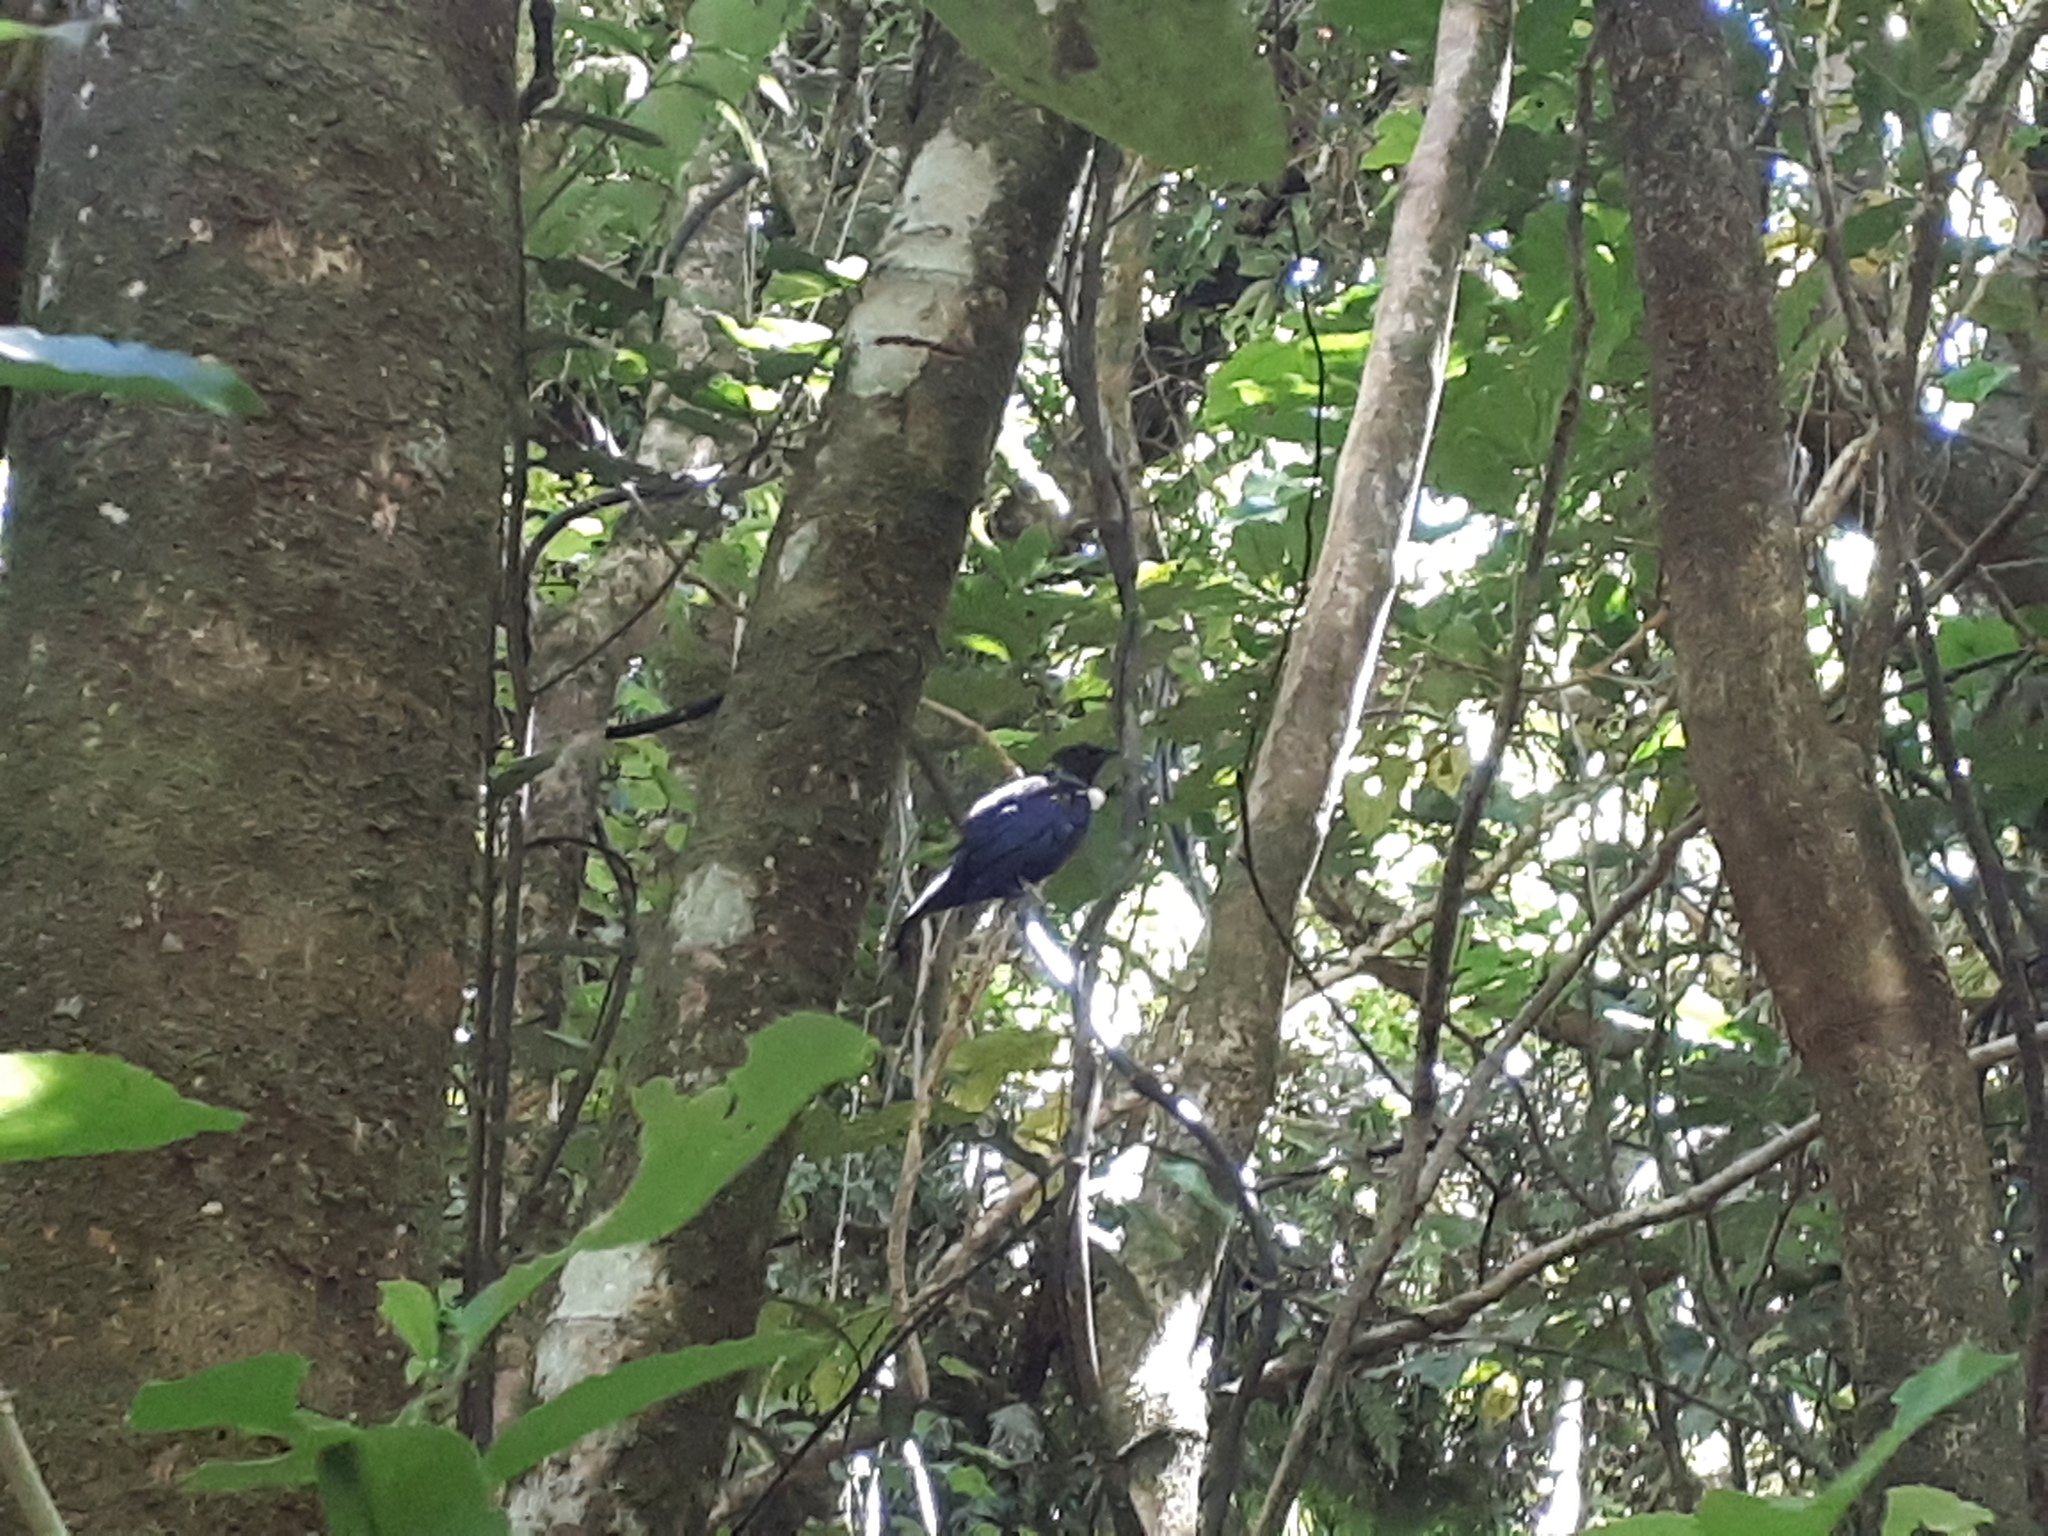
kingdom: Animalia
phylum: Chordata
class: Aves
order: Passeriformes
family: Meliphagidae
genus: Prosthemadera
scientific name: Prosthemadera novaeseelandiae
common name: Tui
